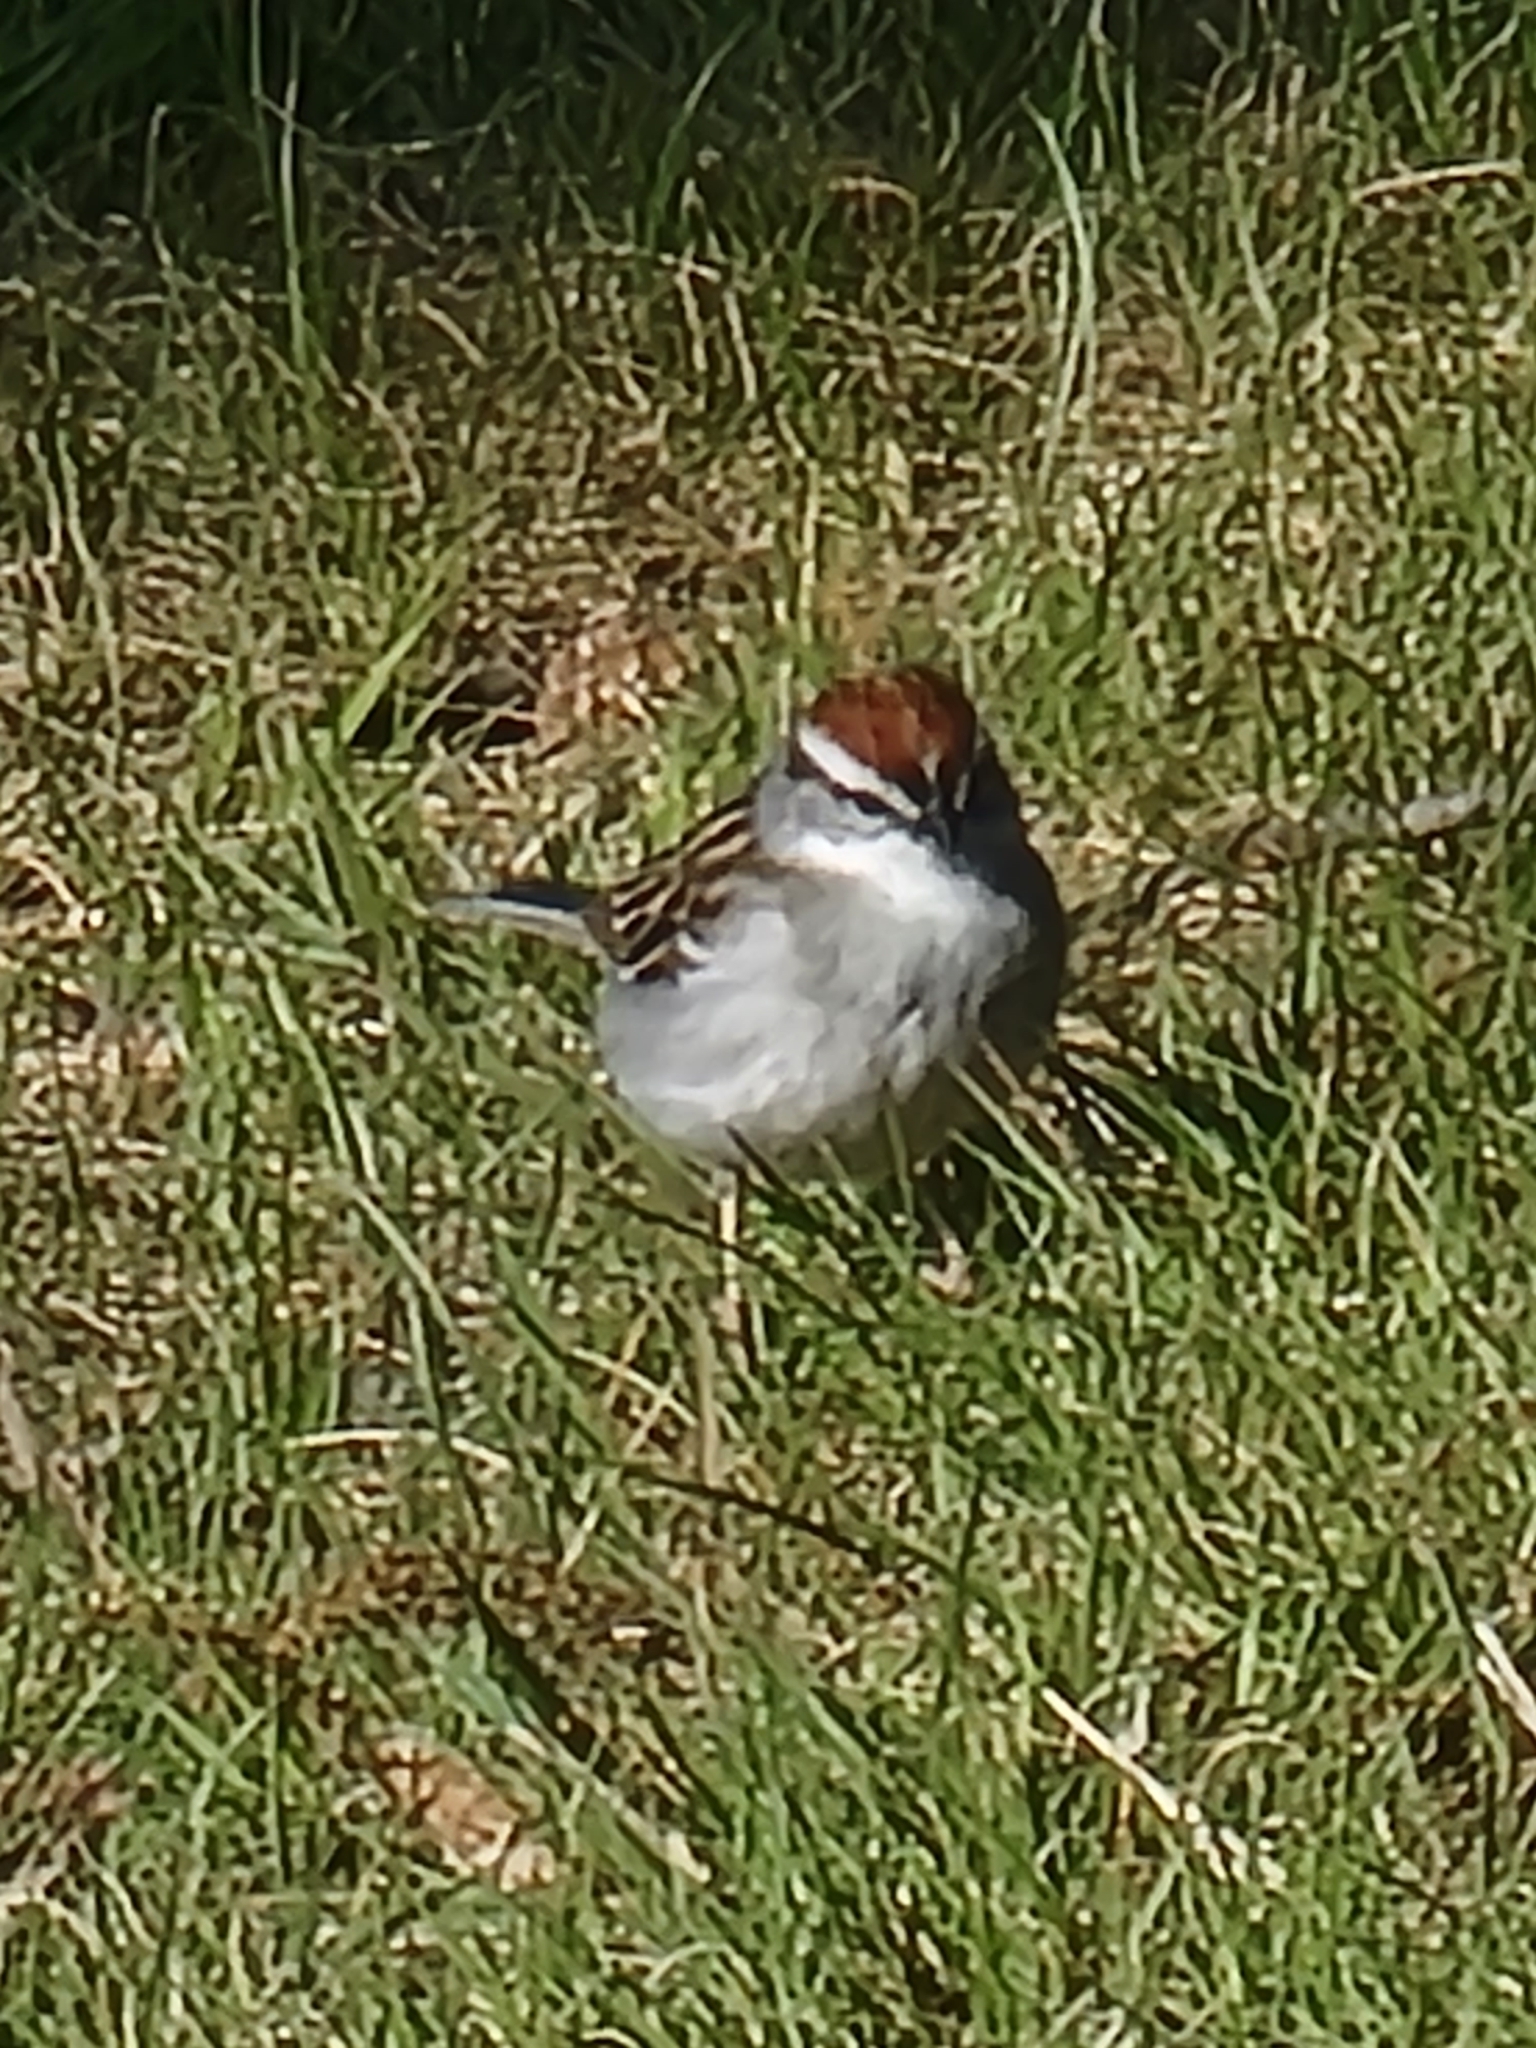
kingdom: Animalia
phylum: Chordata
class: Aves
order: Passeriformes
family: Passerellidae
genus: Spizella
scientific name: Spizella passerina
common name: Chipping sparrow
